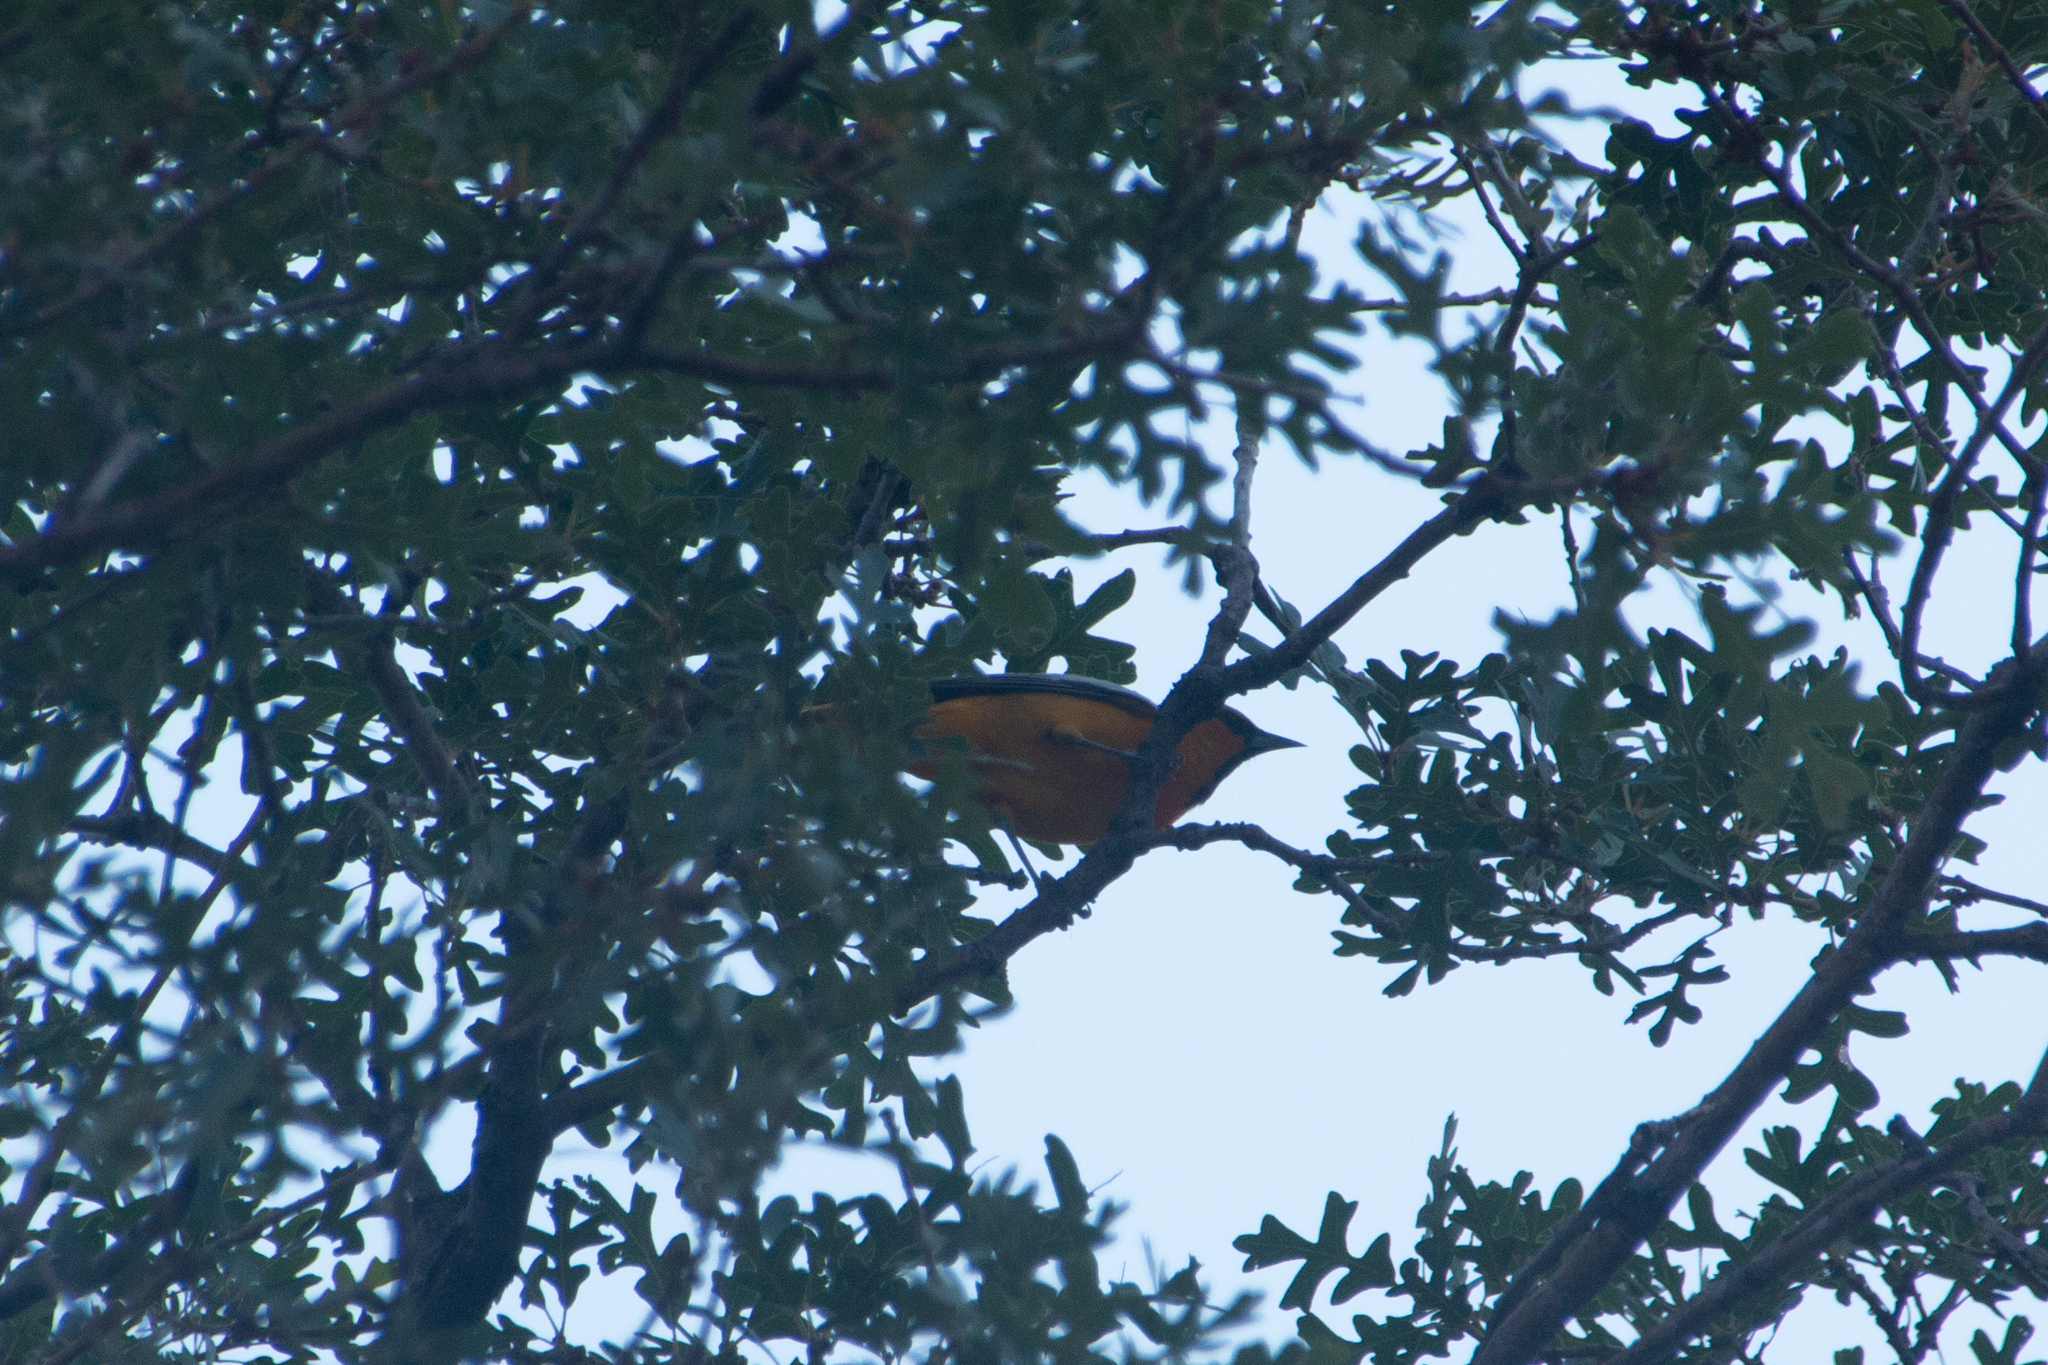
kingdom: Animalia
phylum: Chordata
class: Aves
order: Passeriformes
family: Icteridae
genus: Icterus
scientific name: Icterus bullockii
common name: Bullock's oriole
